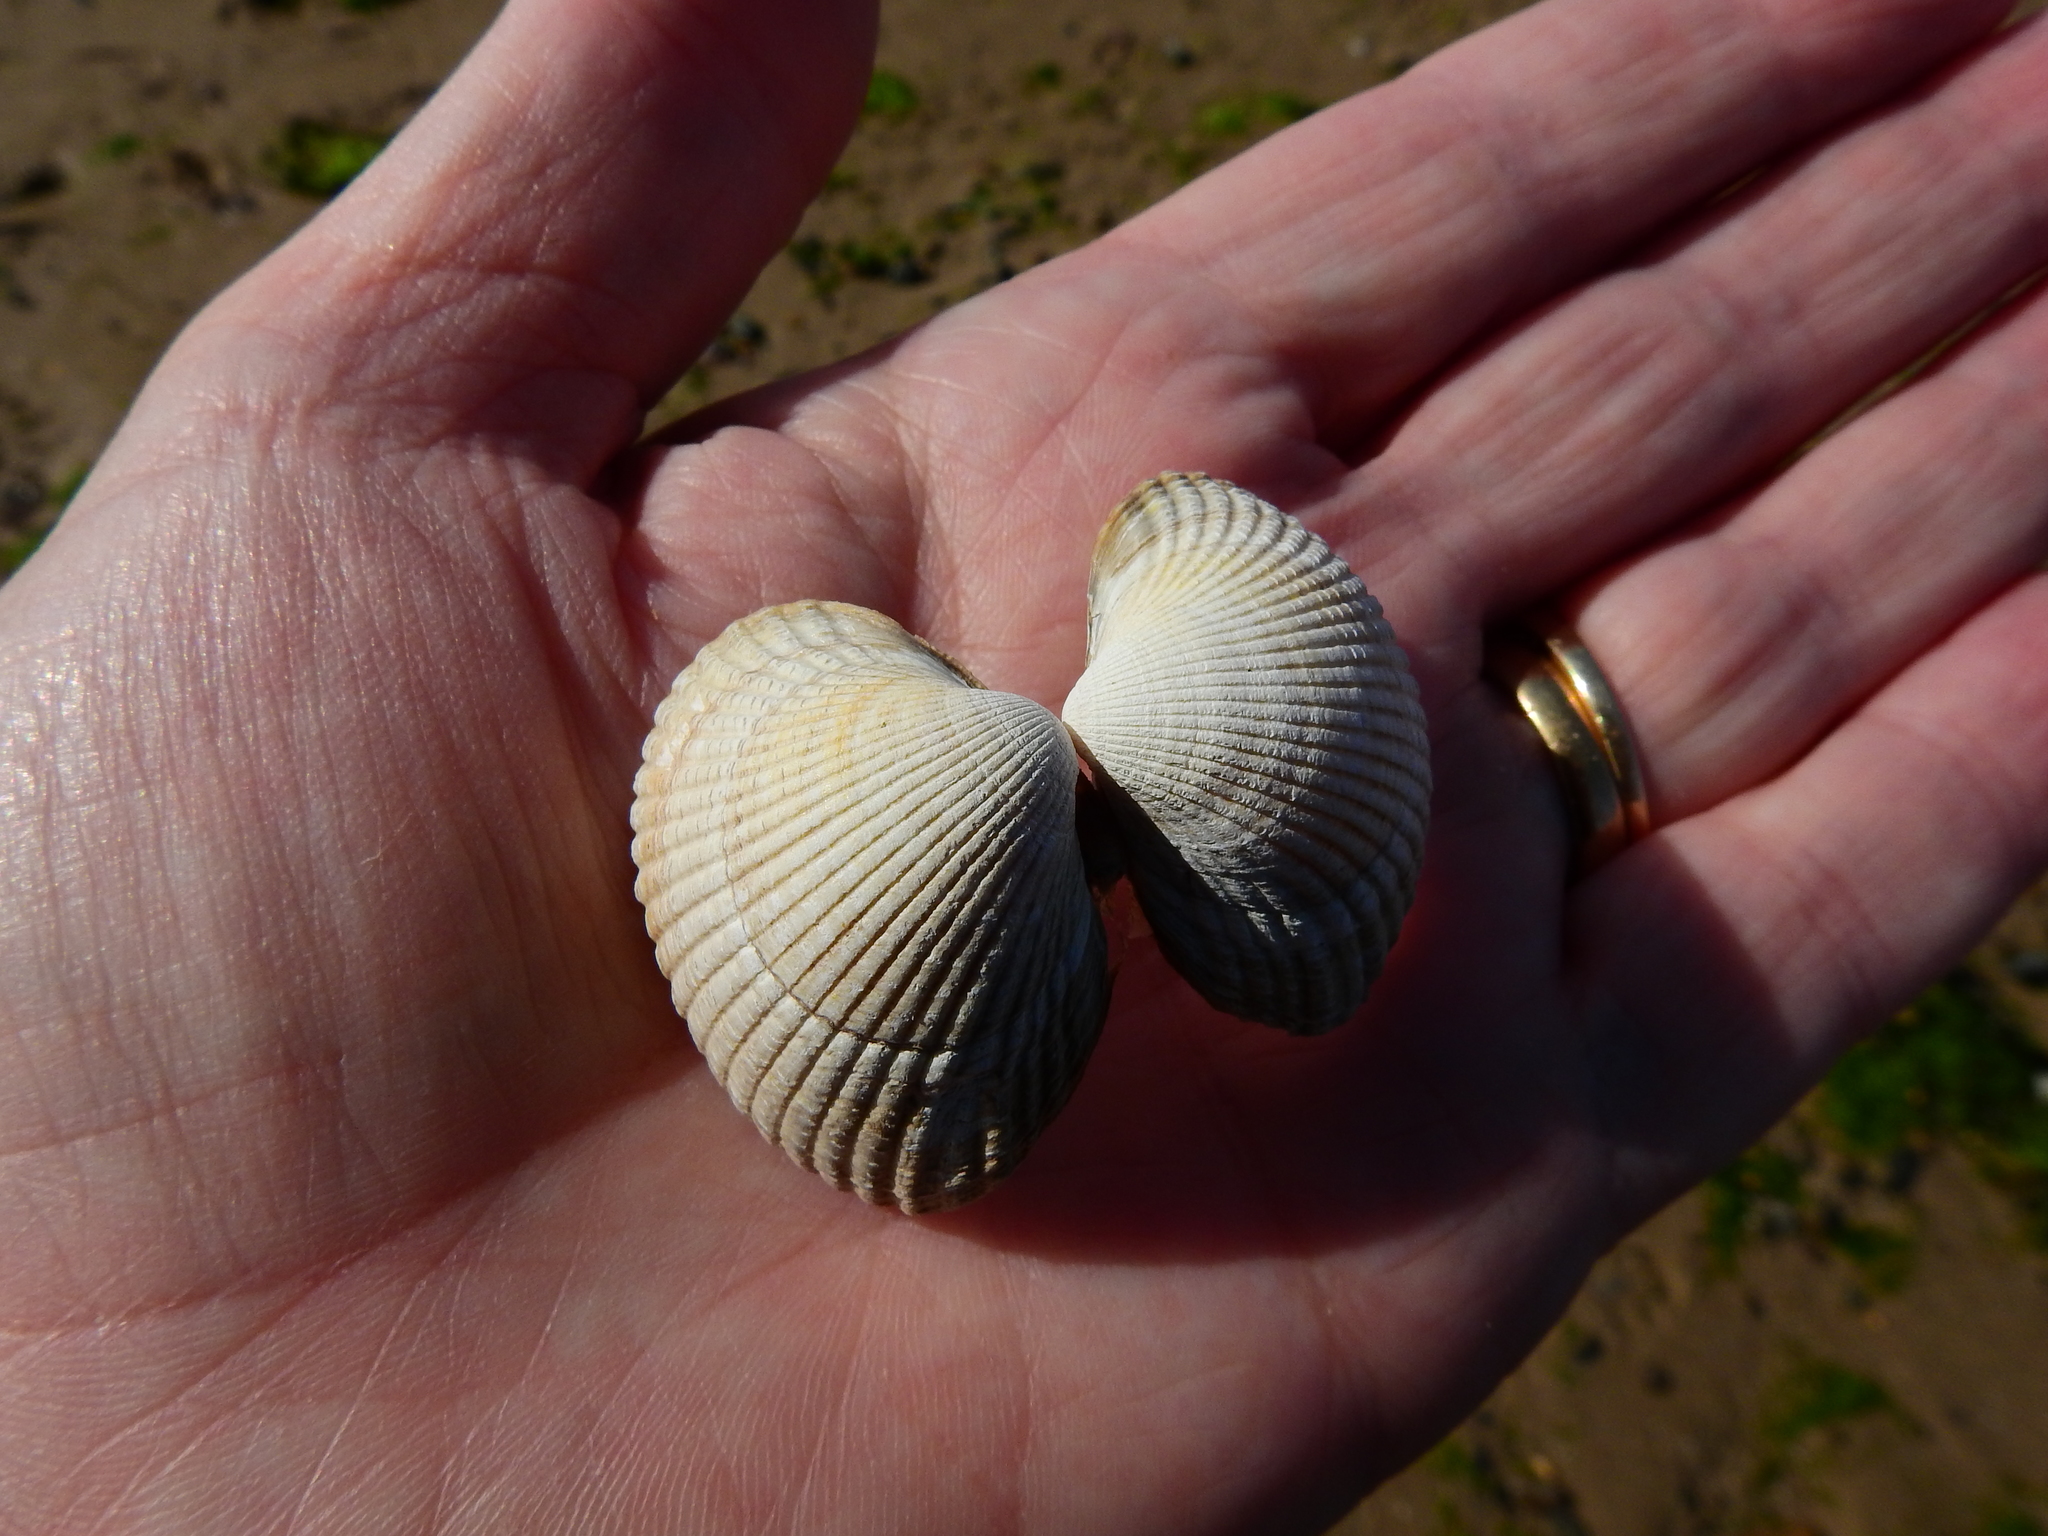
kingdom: Animalia
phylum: Mollusca
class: Bivalvia
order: Cardiida
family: Cardiidae
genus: Cerastoderma
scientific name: Cerastoderma edule
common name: Common cockle
